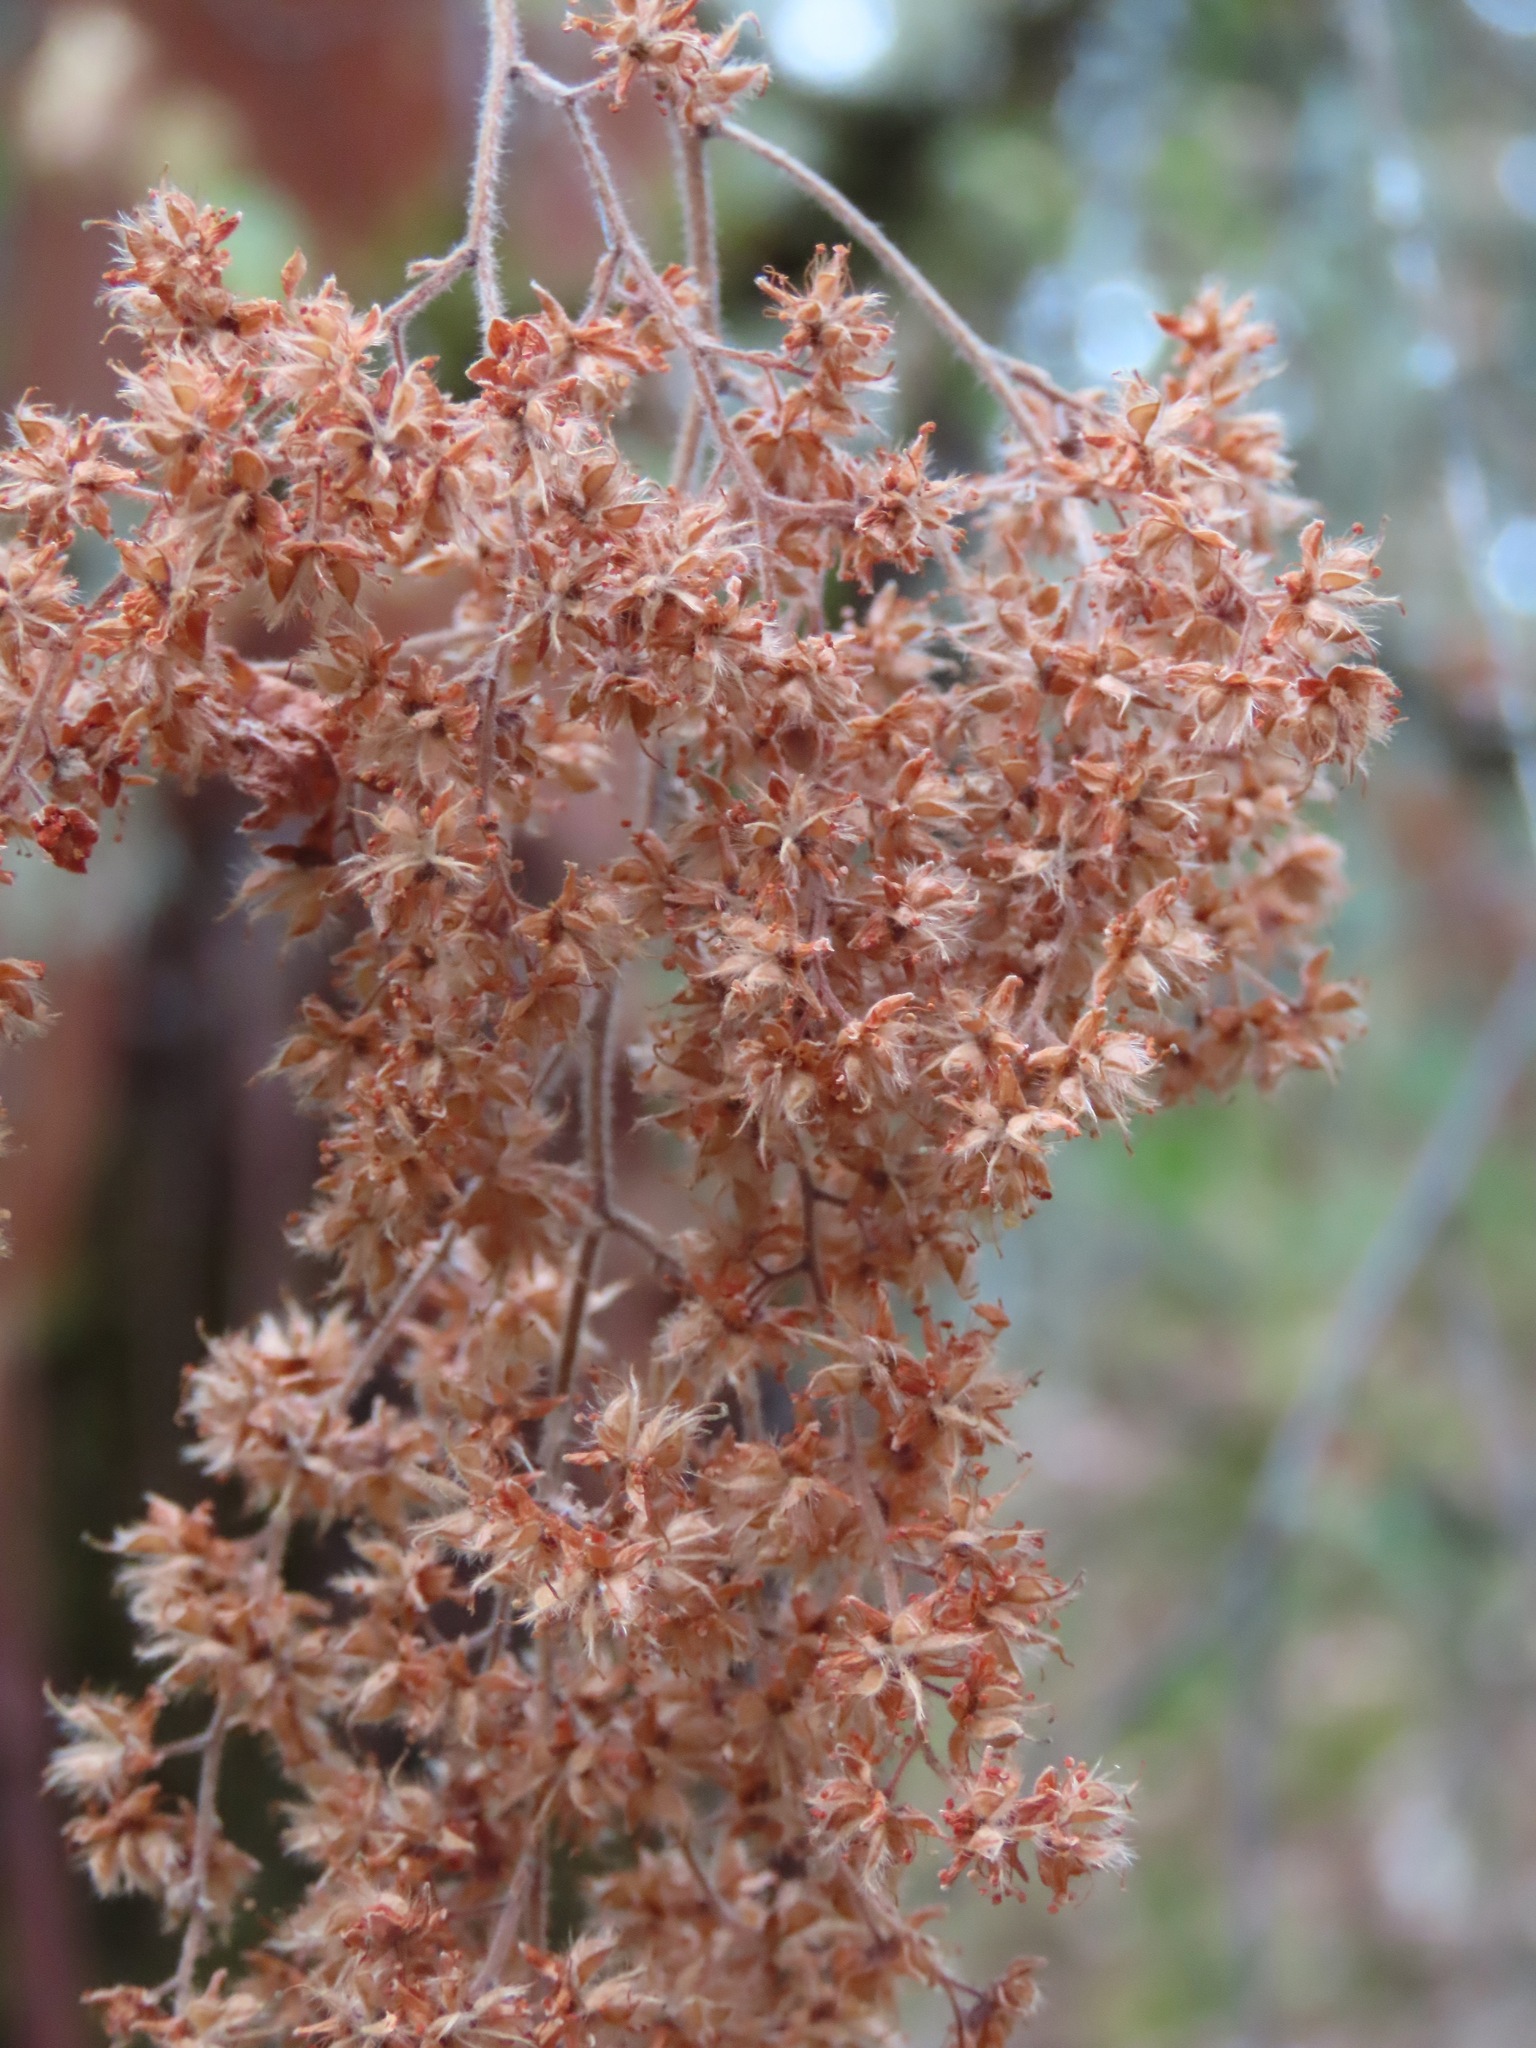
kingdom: Plantae
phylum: Tracheophyta
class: Magnoliopsida
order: Rosales
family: Rosaceae
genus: Holodiscus
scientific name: Holodiscus discolor
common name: Oceanspray
